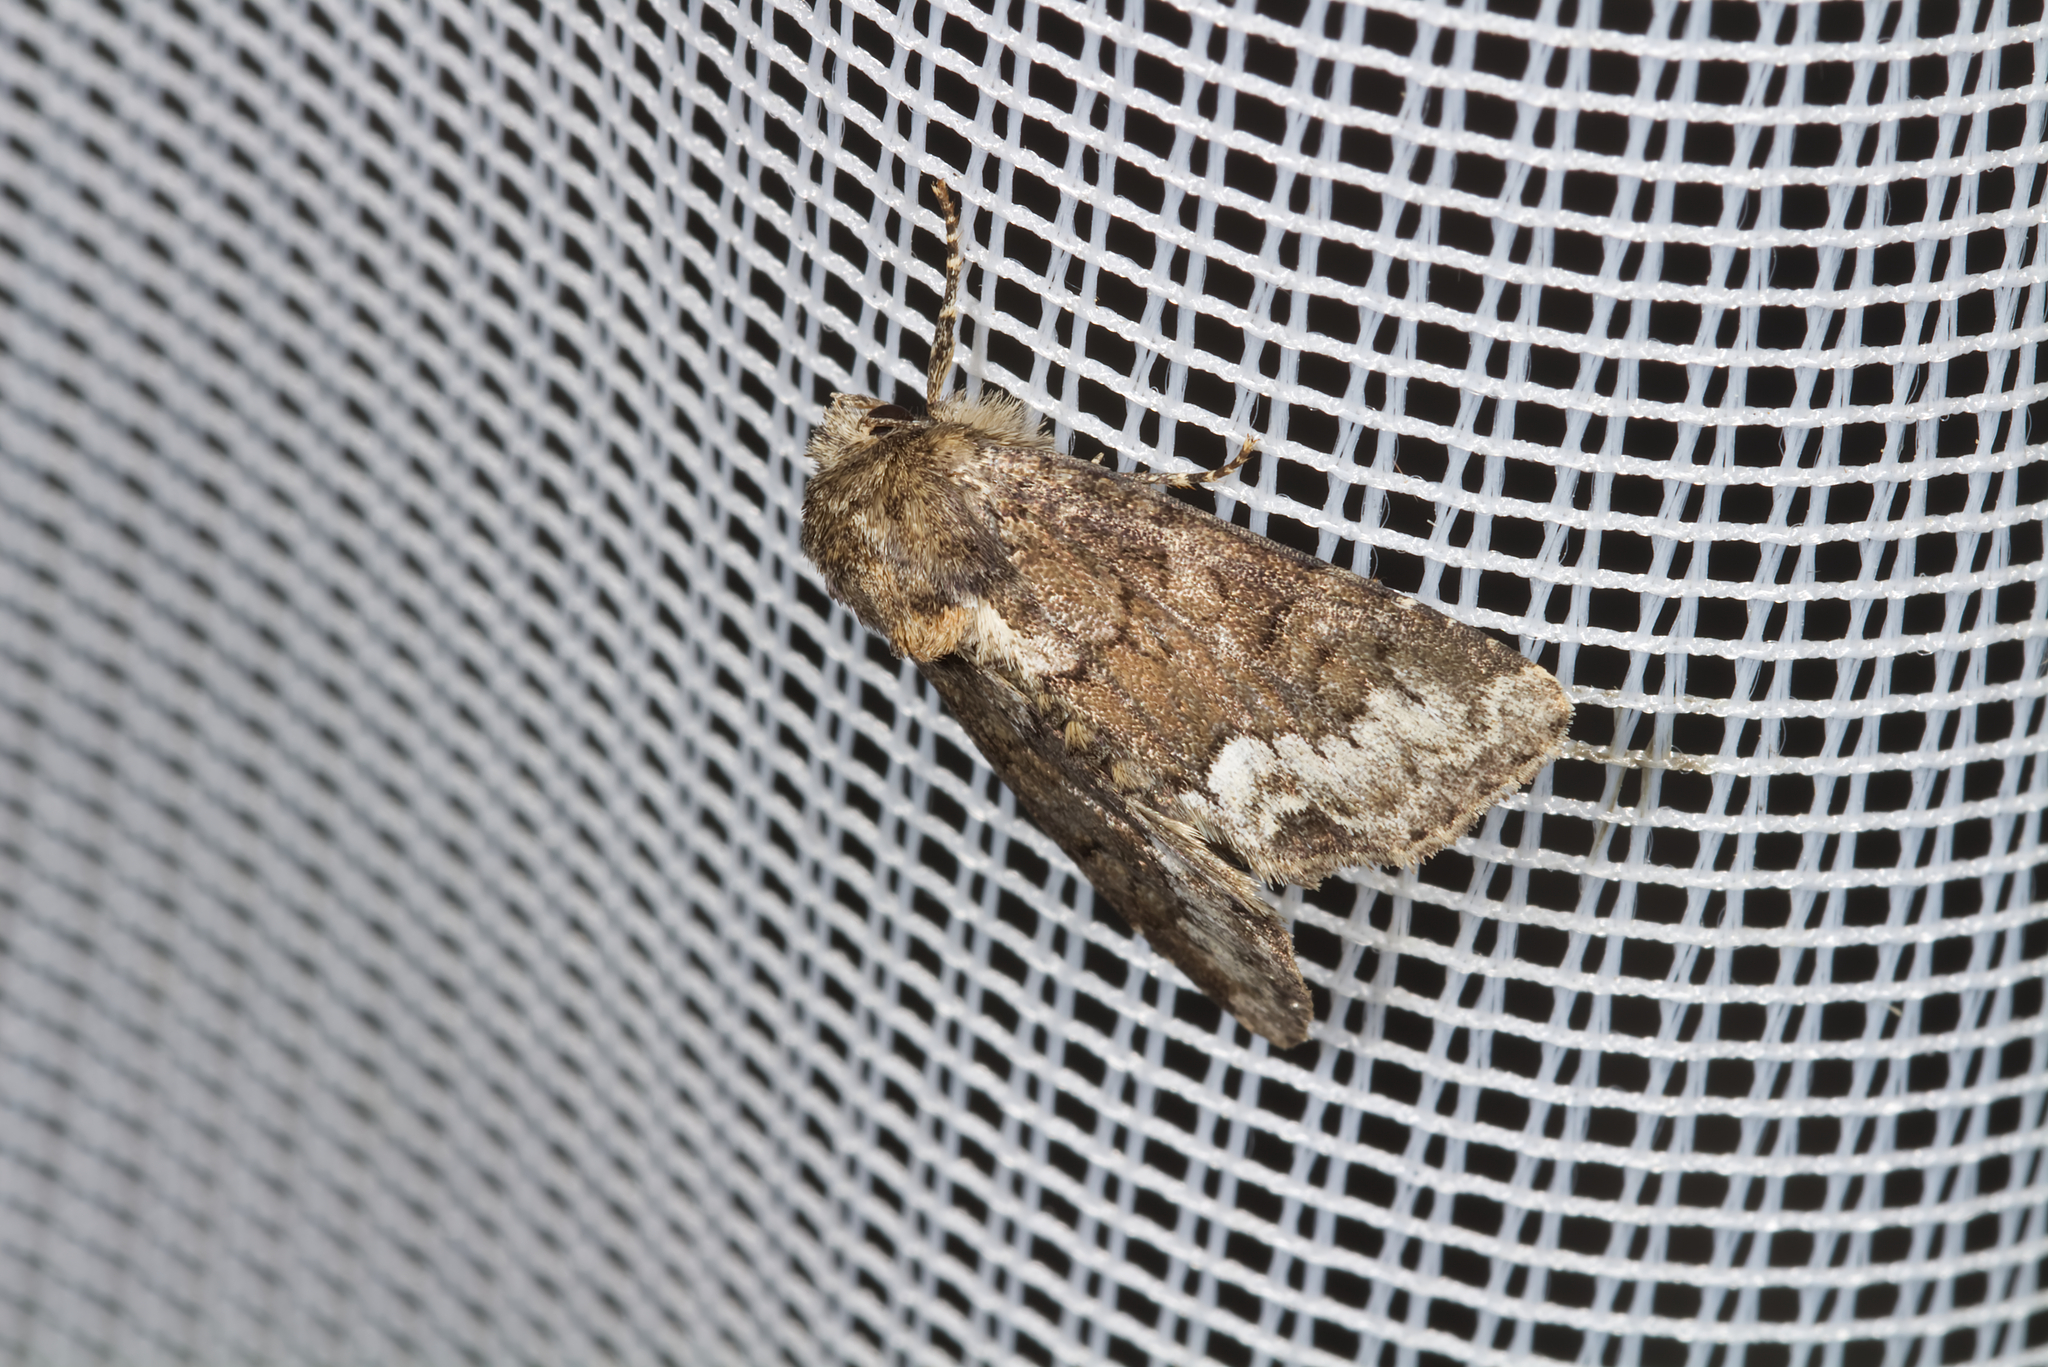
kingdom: Animalia
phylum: Arthropoda
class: Insecta
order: Lepidoptera
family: Noctuidae
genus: Oligia
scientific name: Oligia strigilis
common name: Marbled minor
